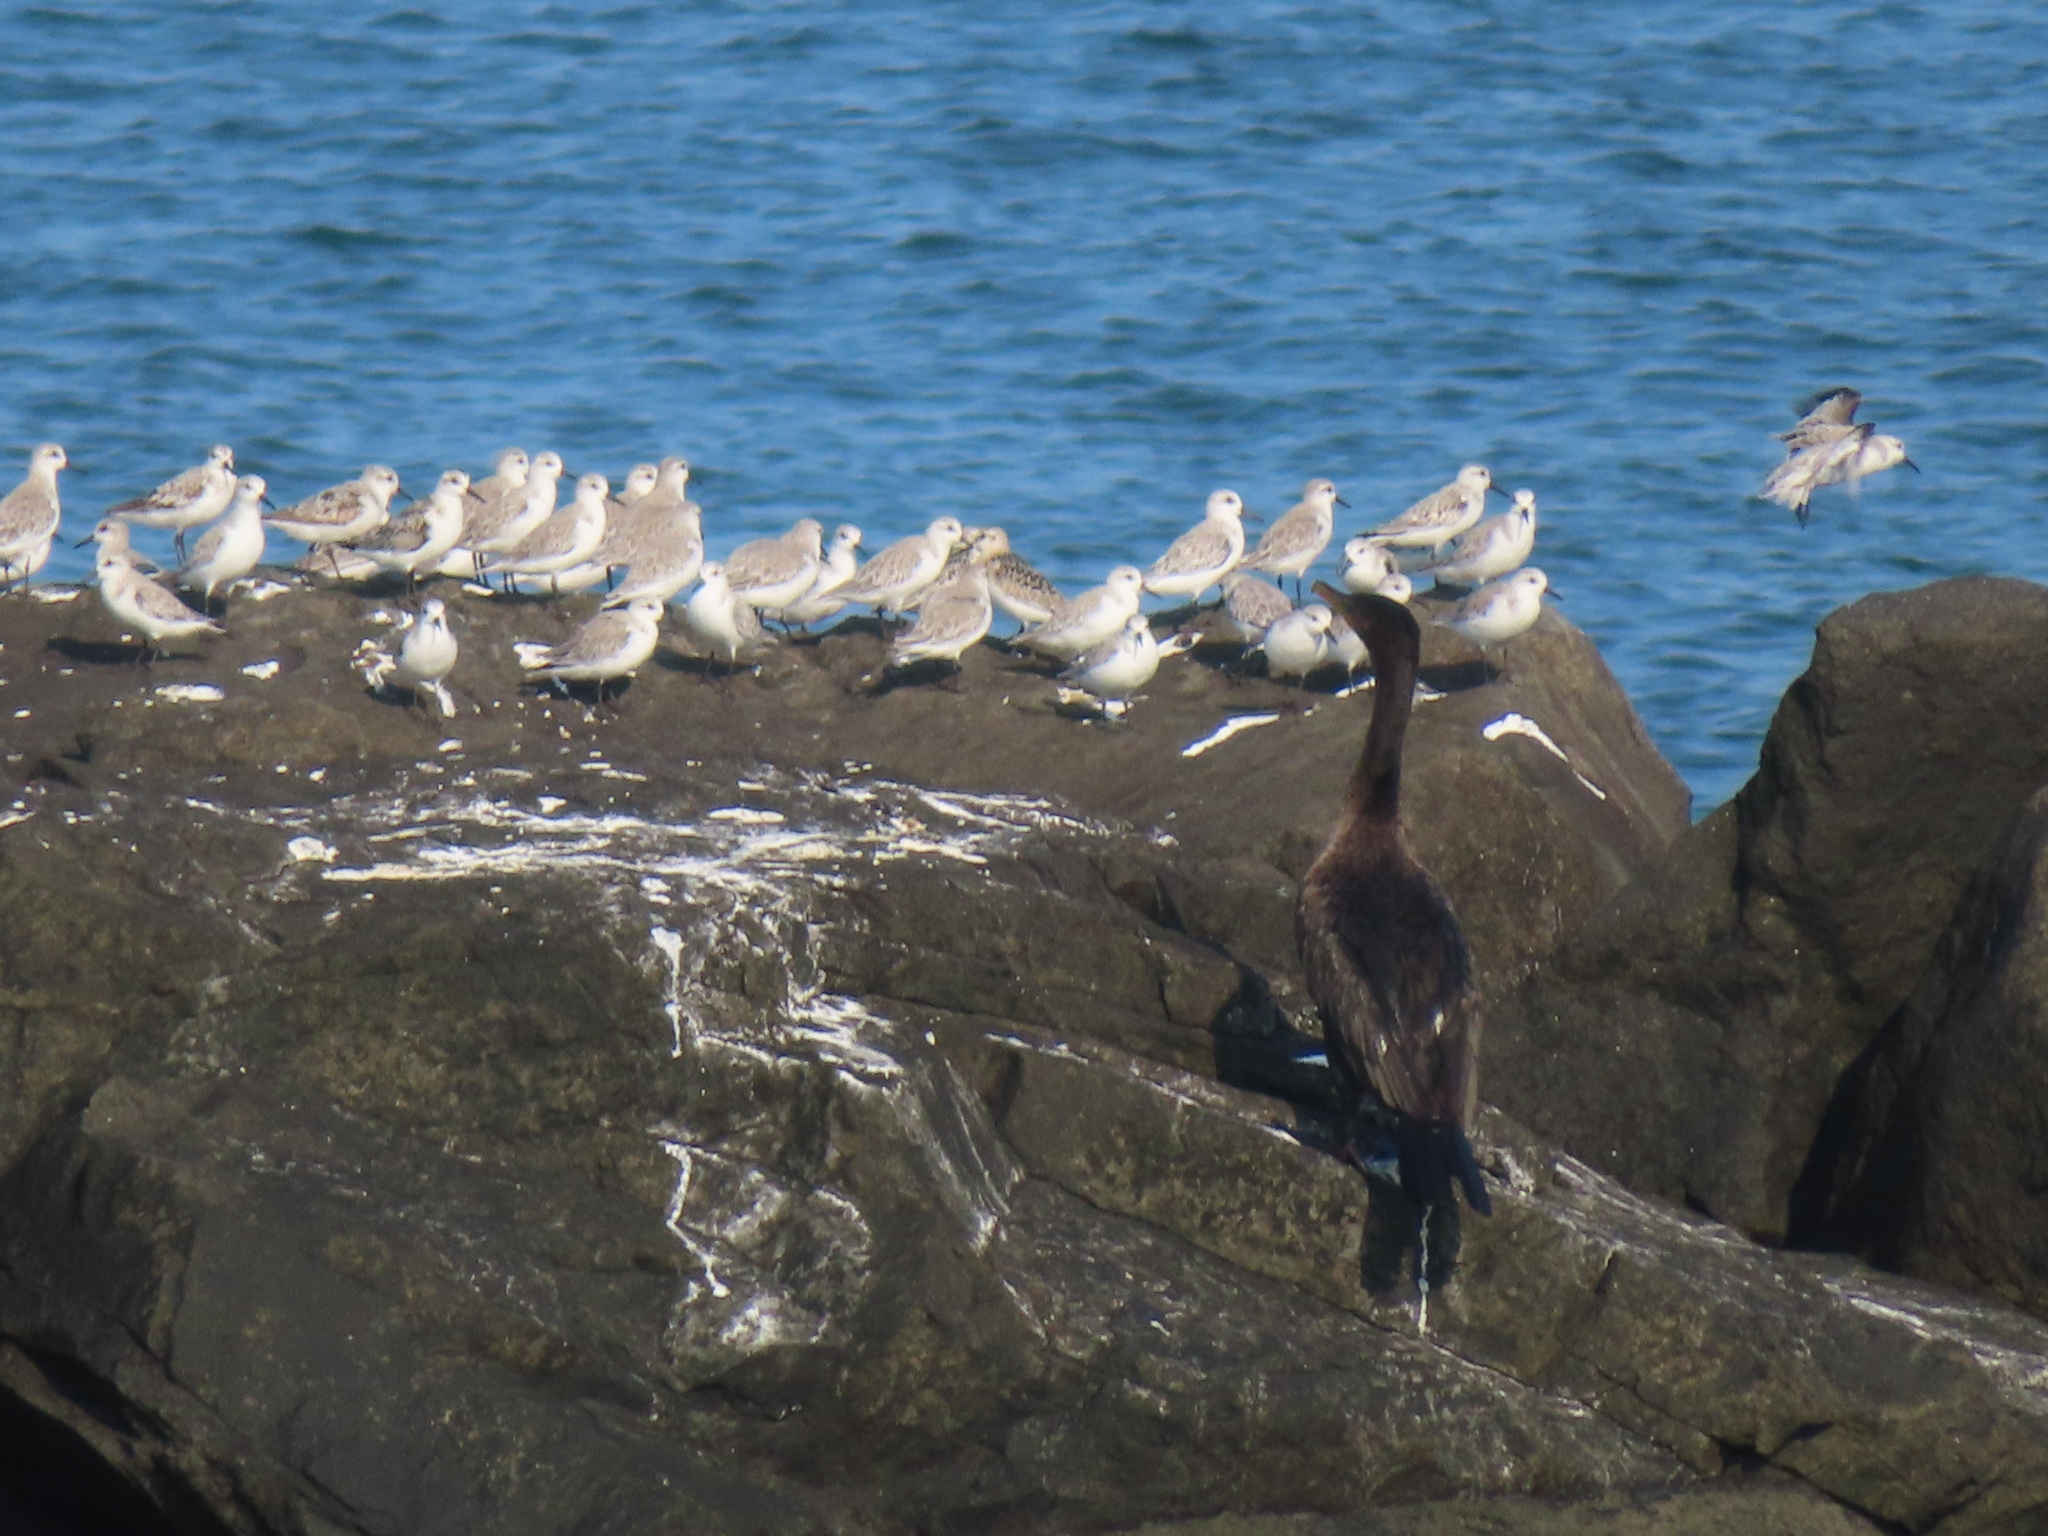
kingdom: Animalia
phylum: Chordata
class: Aves
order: Suliformes
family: Phalacrocoracidae
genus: Phalacrocorax
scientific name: Phalacrocorax auritus
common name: Double-crested cormorant
